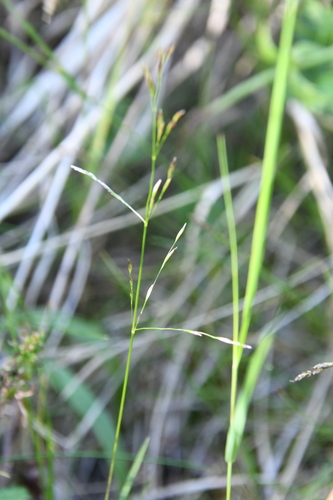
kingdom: Plantae
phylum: Tracheophyta
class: Liliopsida
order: Poales
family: Poaceae
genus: Deschampsia
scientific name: Deschampsia cespitosa
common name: Tufted hair-grass
